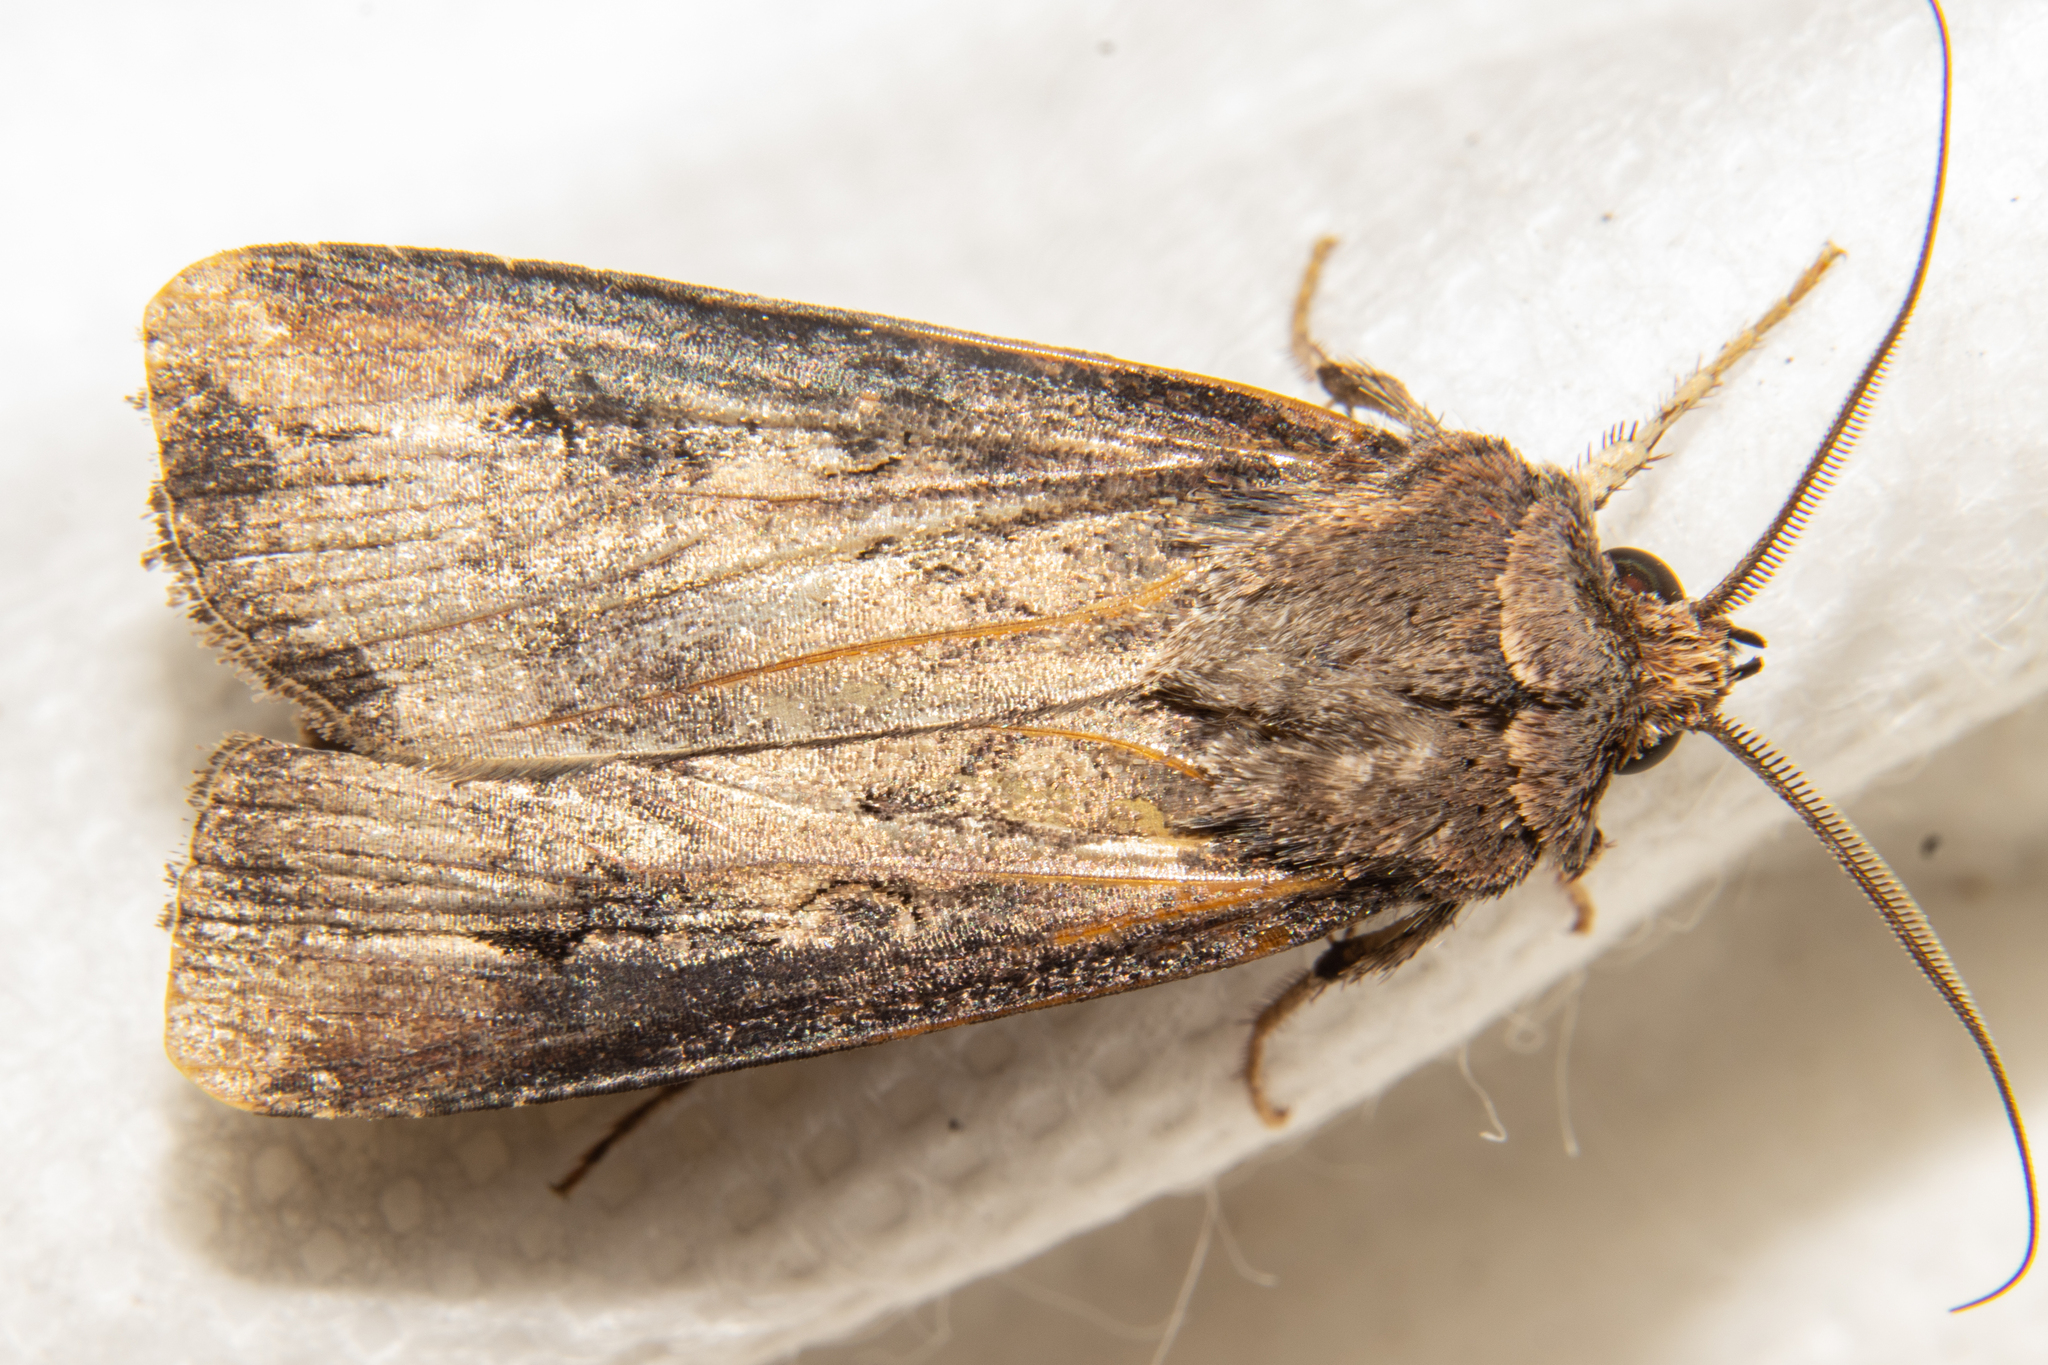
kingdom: Animalia
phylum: Arthropoda
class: Insecta
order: Lepidoptera
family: Noctuidae
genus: Agrotis
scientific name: Agrotis ipsilon
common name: Dark sword-grass
